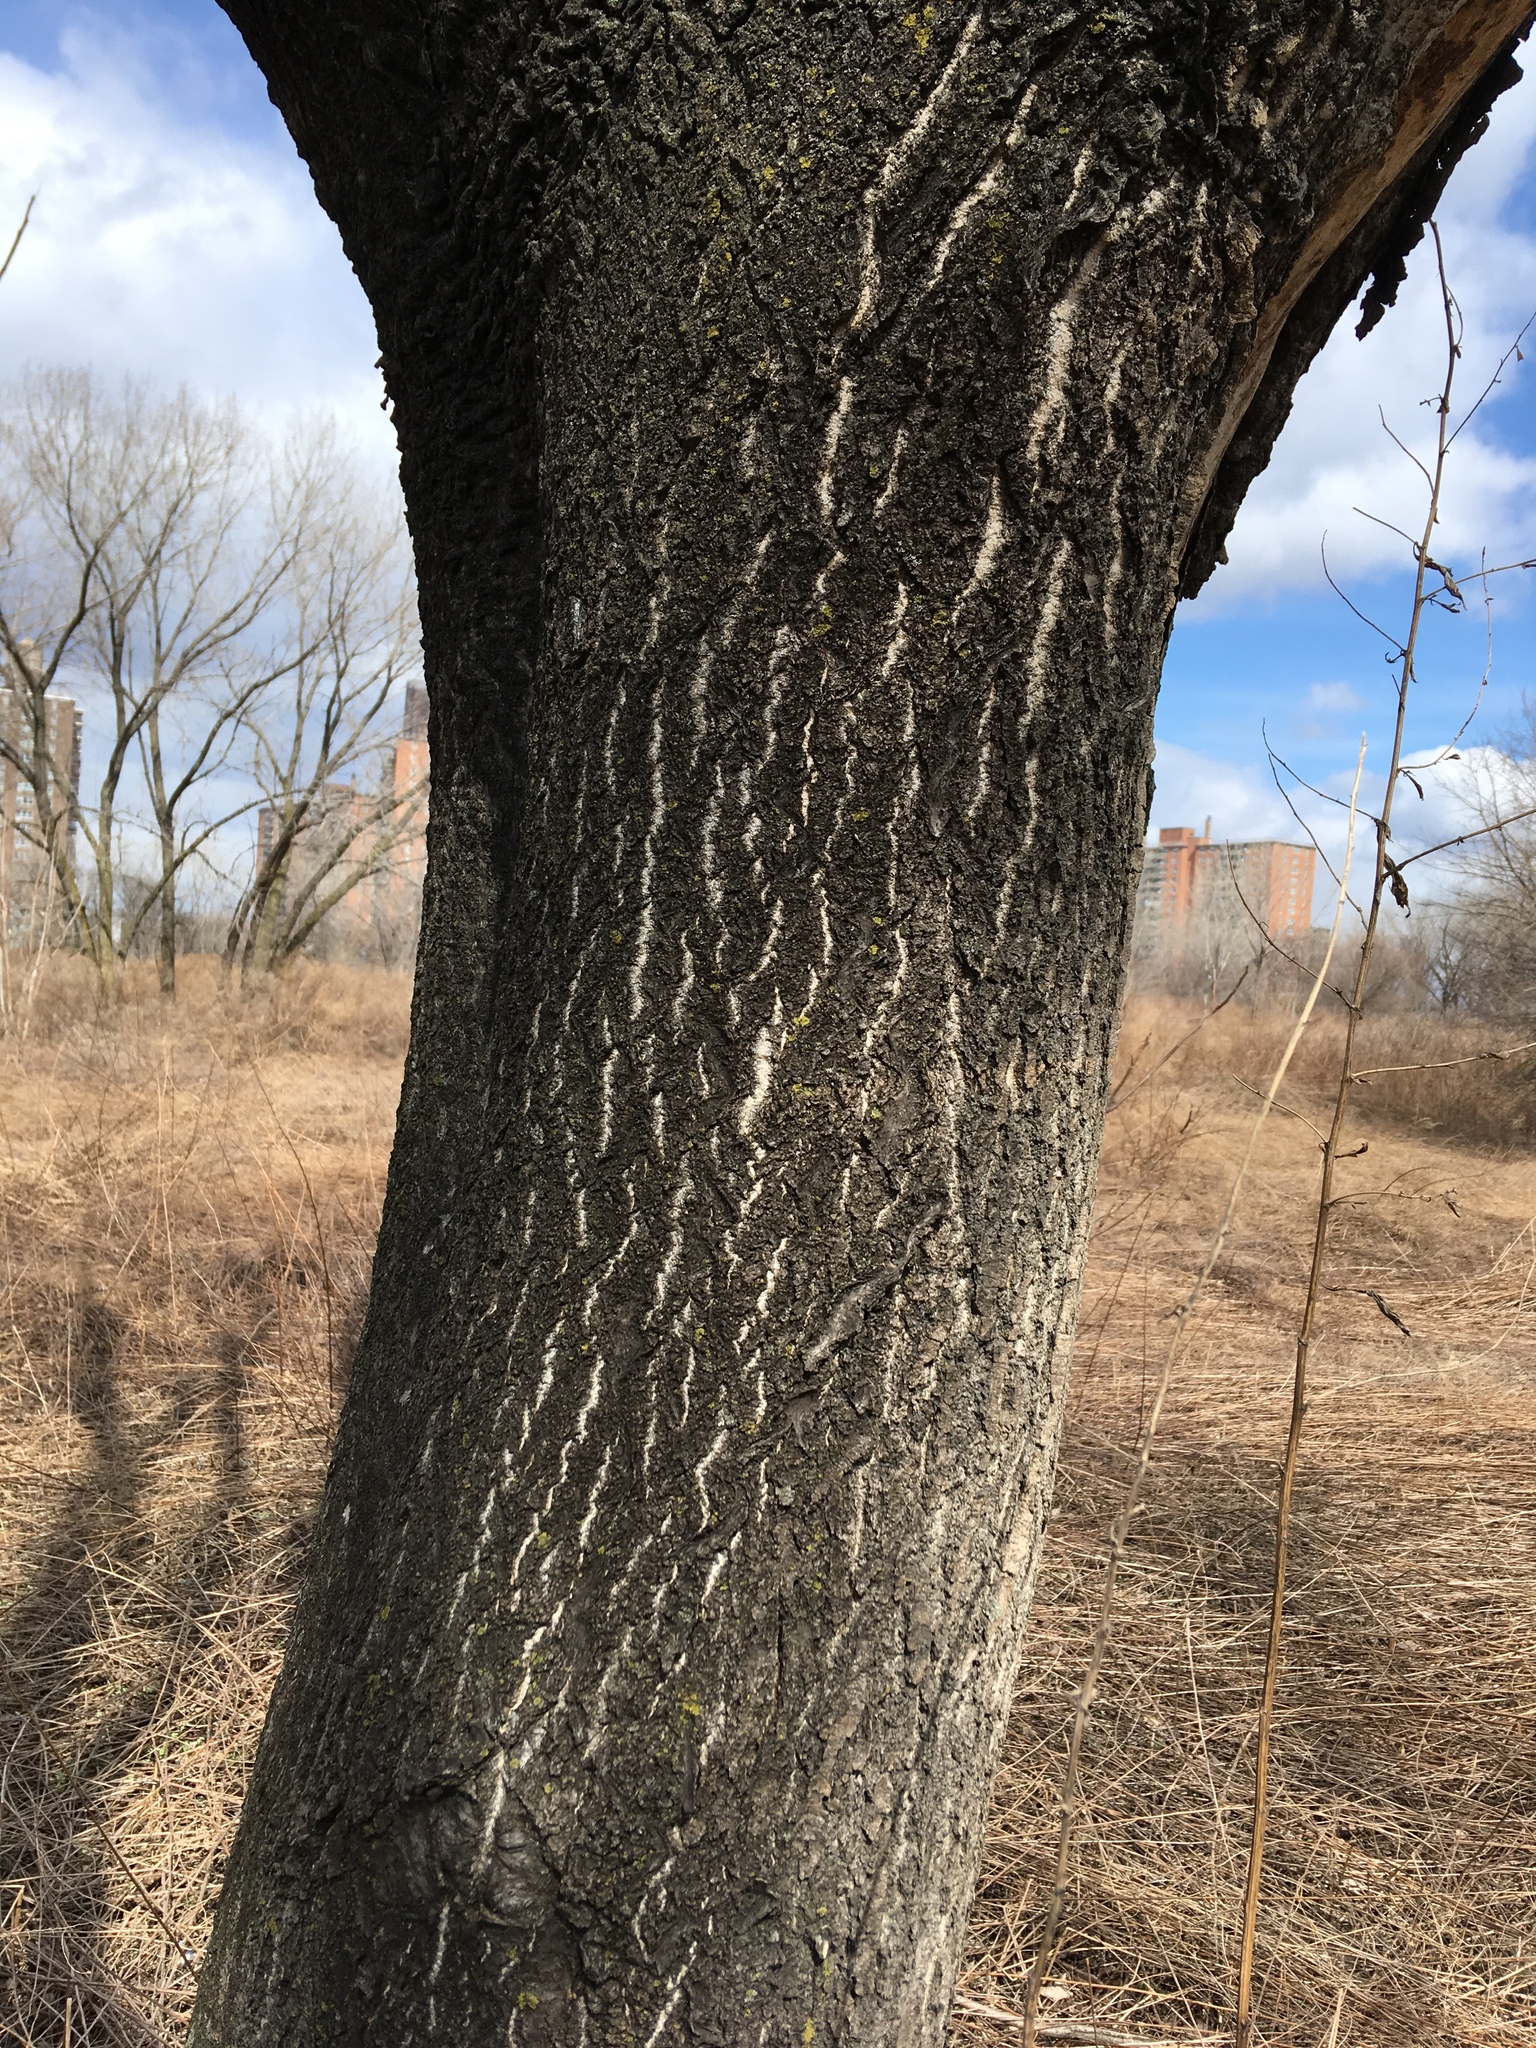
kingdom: Plantae
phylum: Tracheophyta
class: Magnoliopsida
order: Sapindales
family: Simaroubaceae
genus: Ailanthus
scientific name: Ailanthus altissima
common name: Tree-of-heaven
